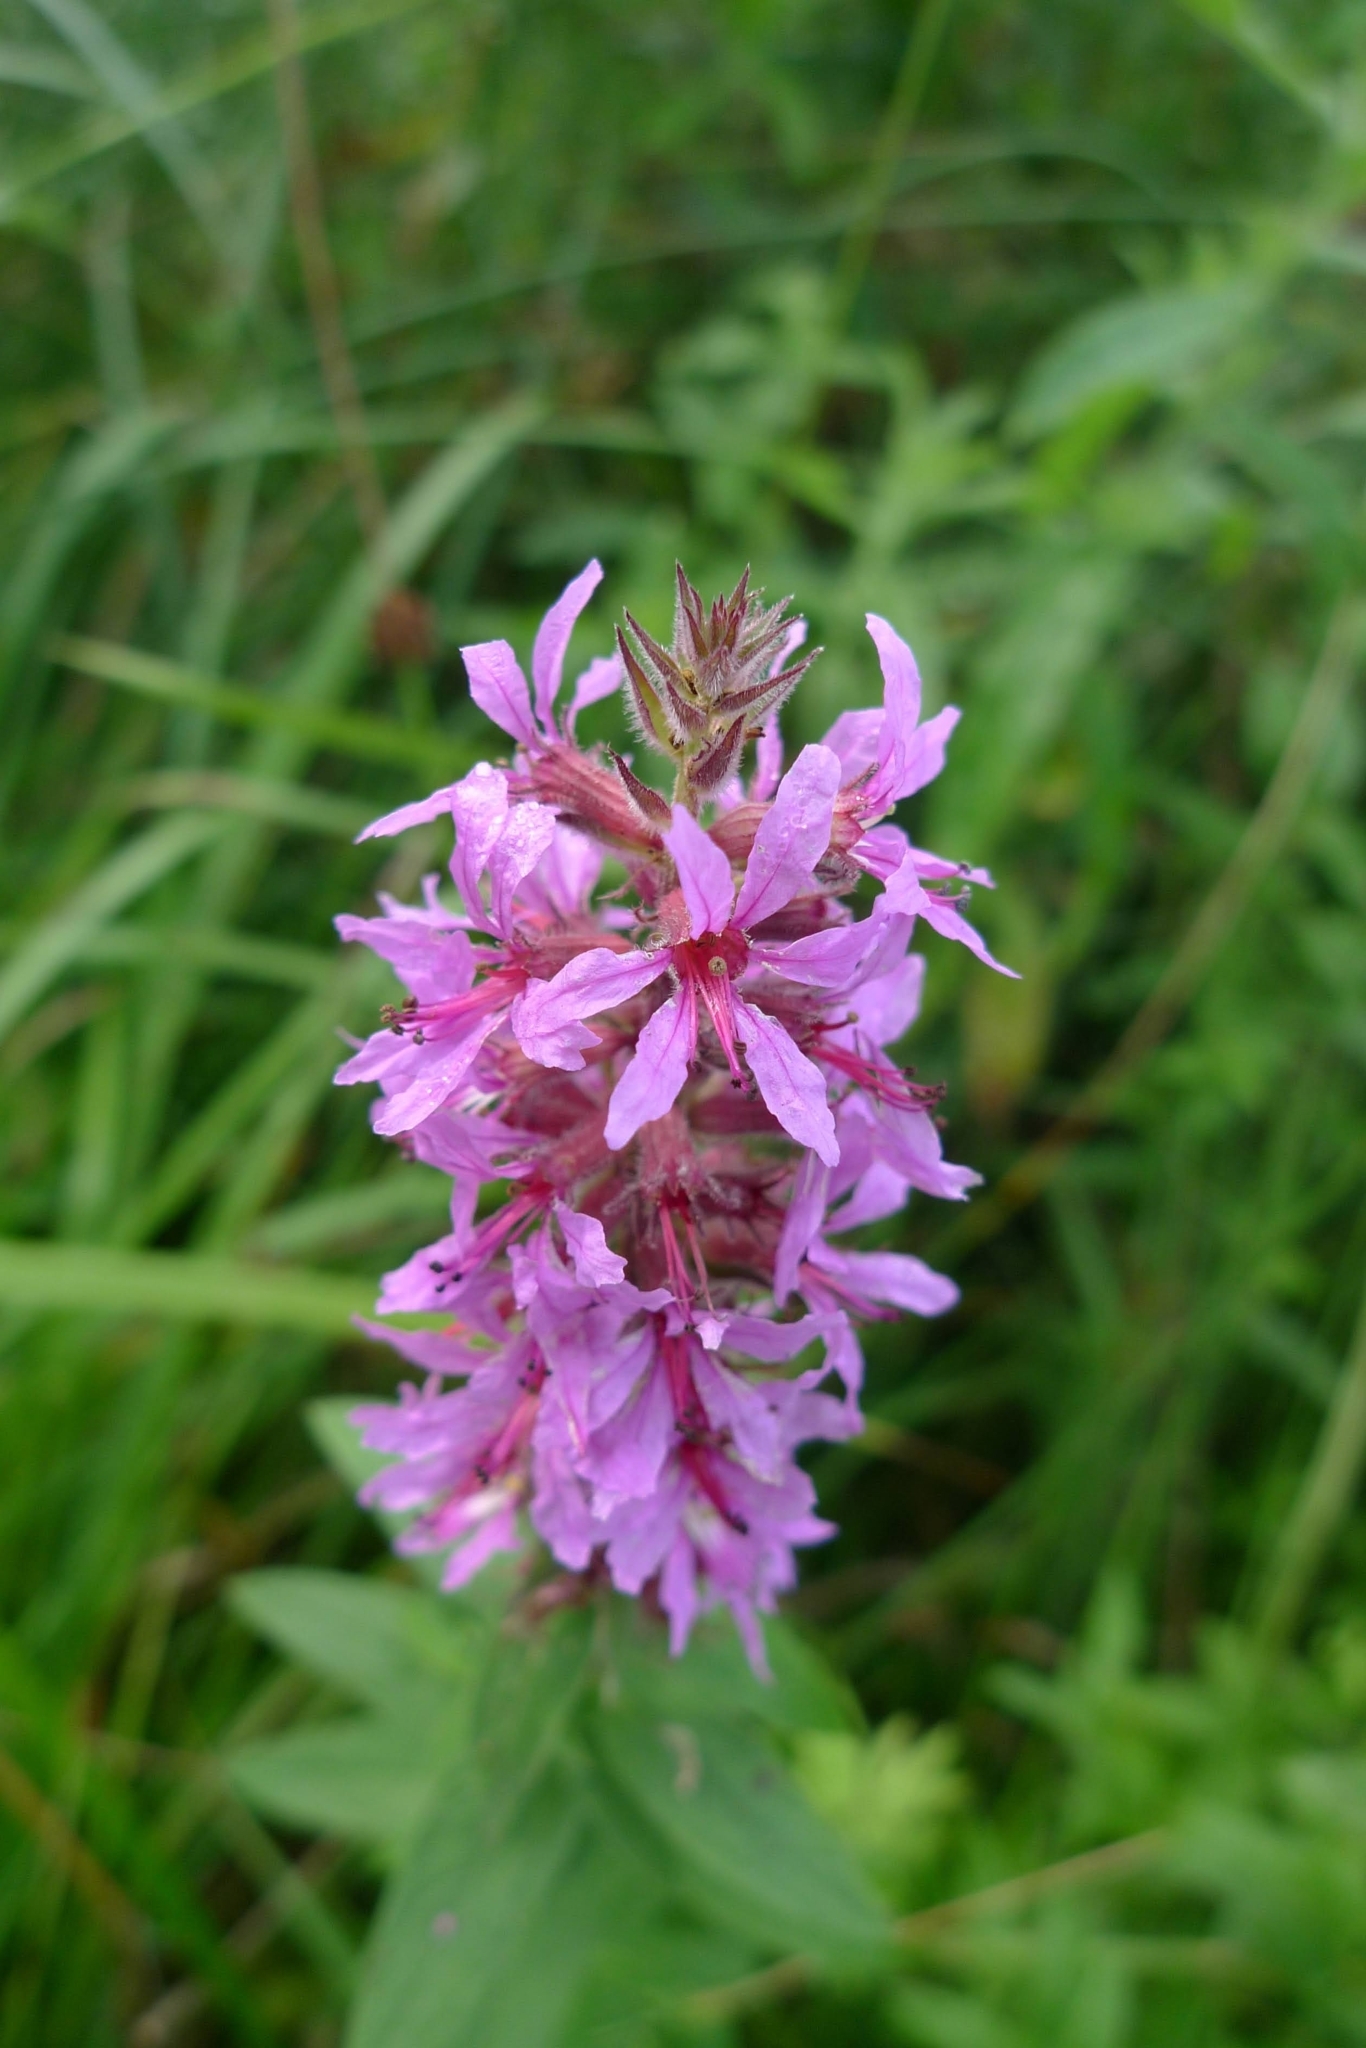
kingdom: Plantae
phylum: Tracheophyta
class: Magnoliopsida
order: Myrtales
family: Lythraceae
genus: Lythrum
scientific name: Lythrum salicaria
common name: Purple loosestrife
